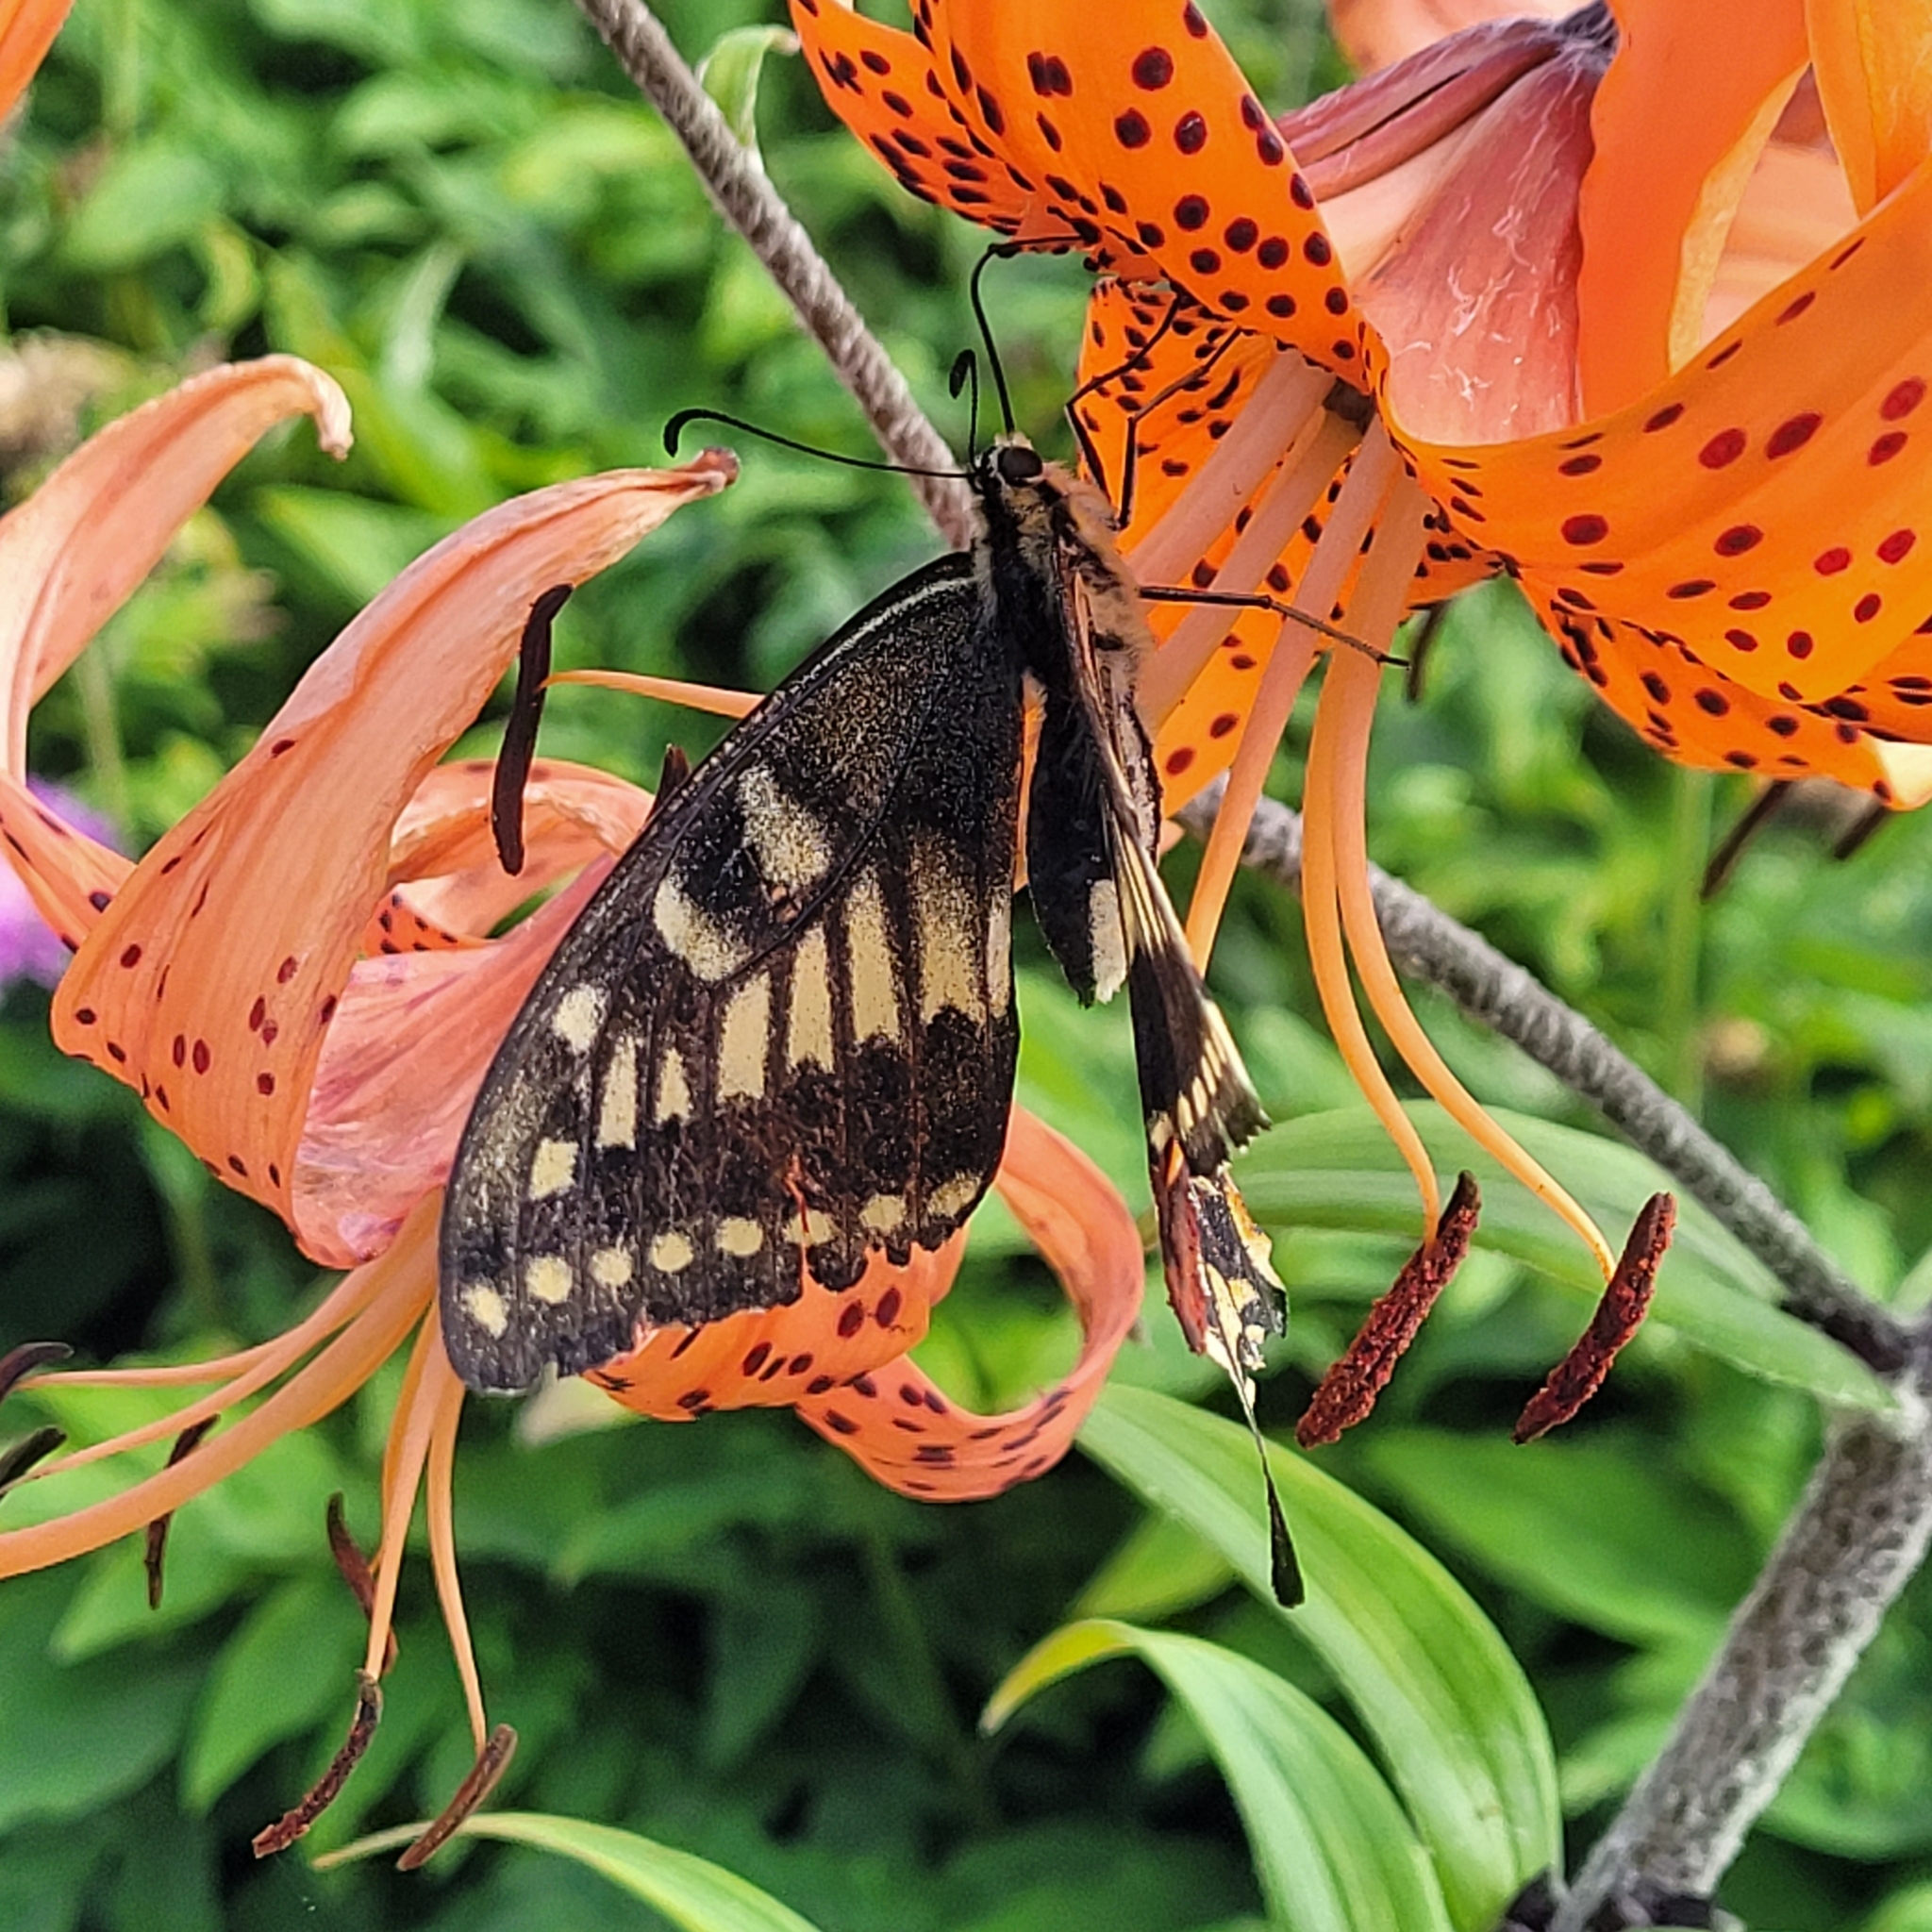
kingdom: Animalia
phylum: Arthropoda
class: Insecta
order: Lepidoptera
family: Papilionidae
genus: Papilio
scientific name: Papilio machaon
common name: Swallowtail
